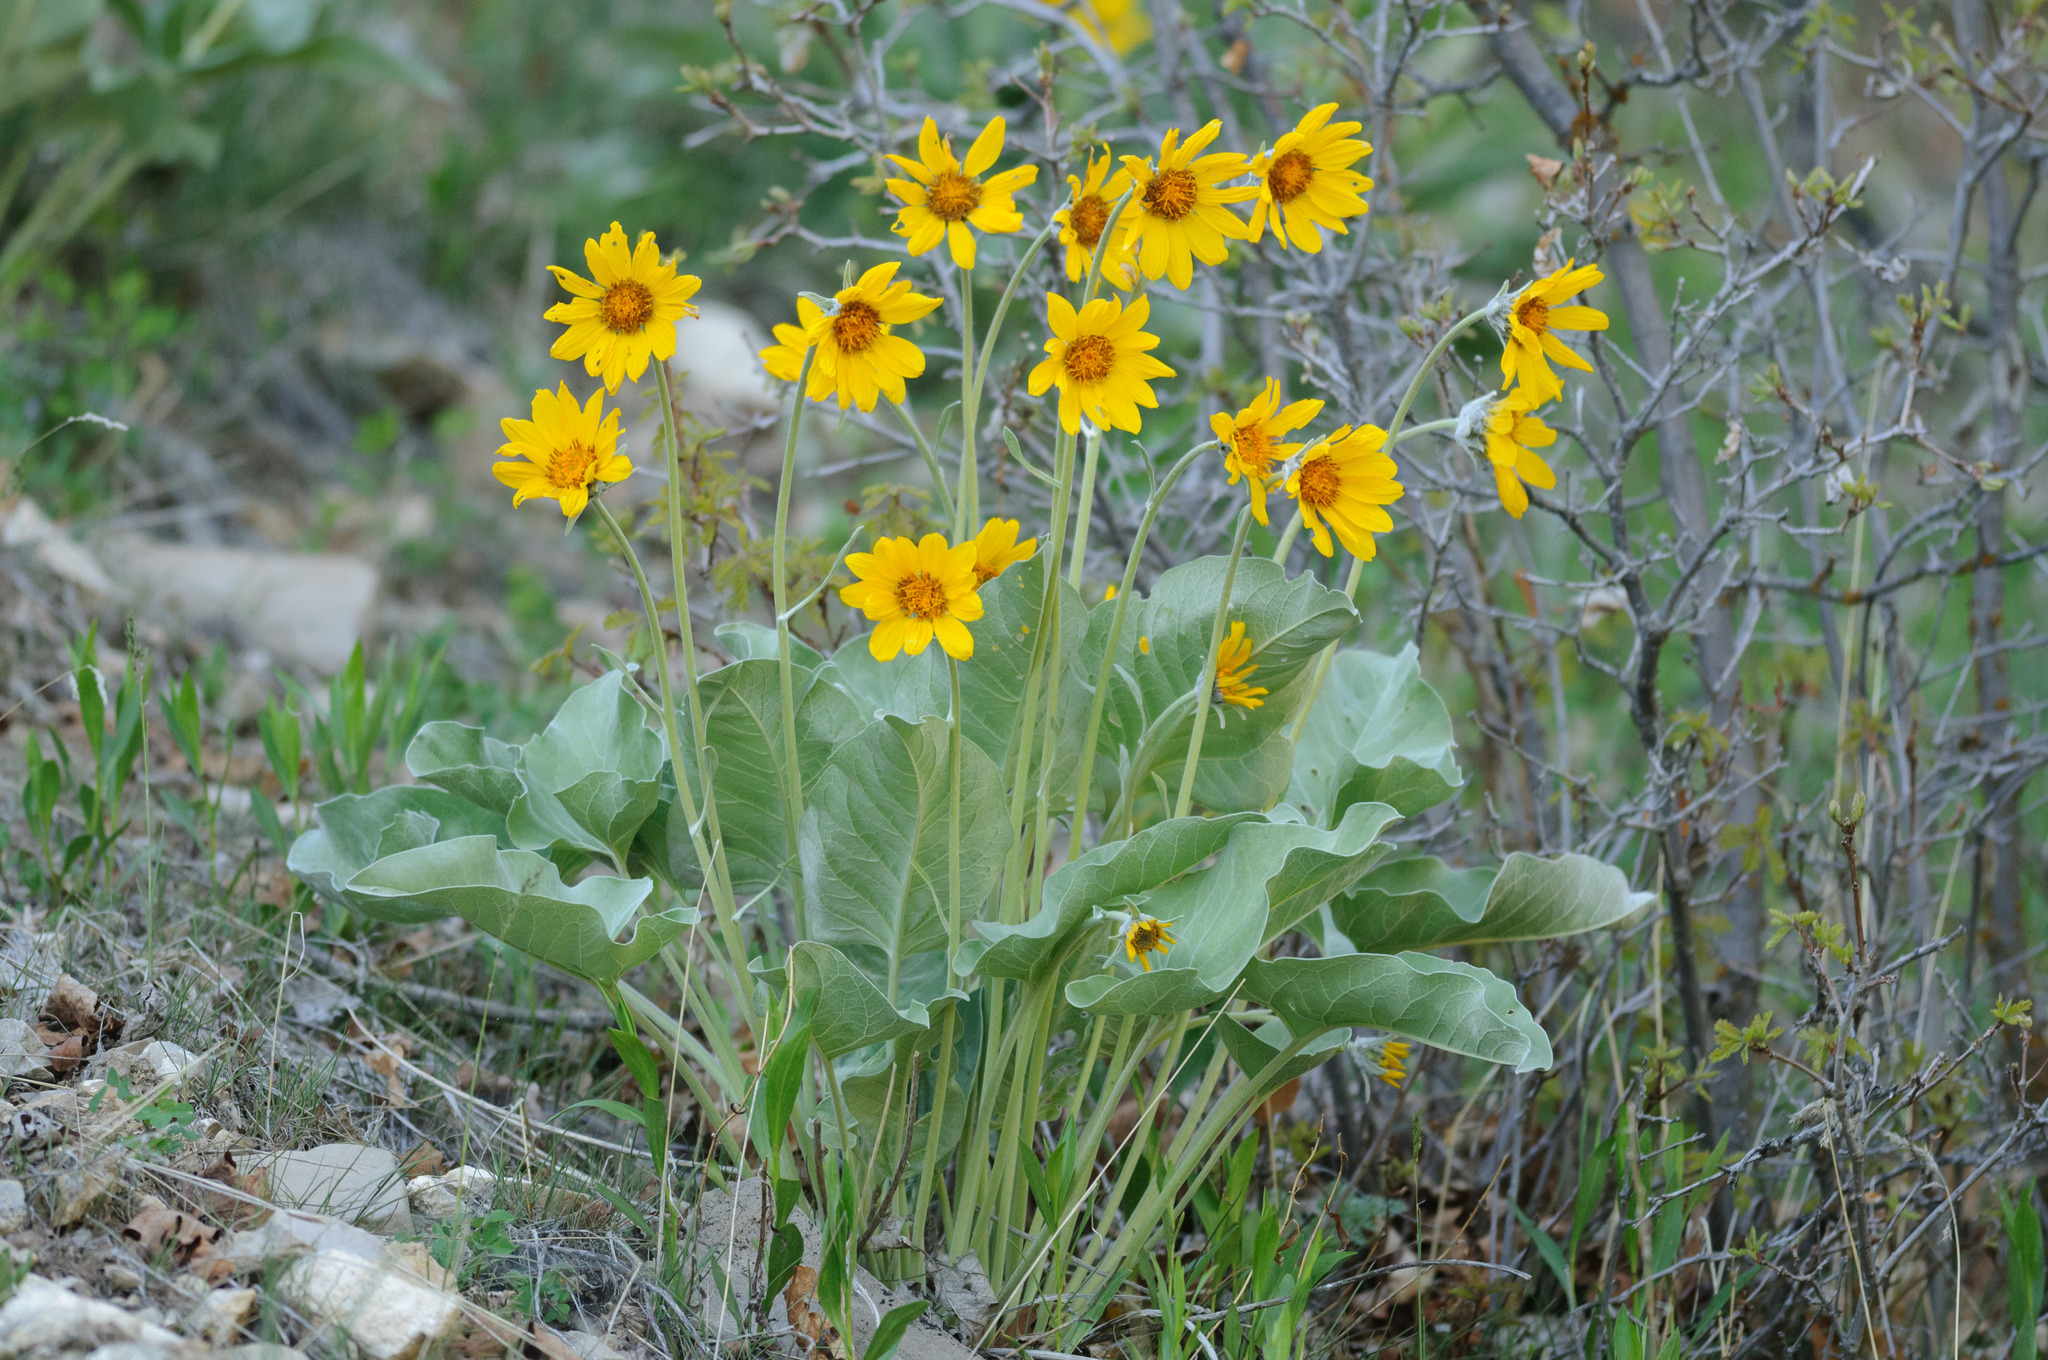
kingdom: Plantae
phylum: Tracheophyta
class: Magnoliopsida
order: Asterales
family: Asteraceae
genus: Wyethia
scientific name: Wyethia sagittata
